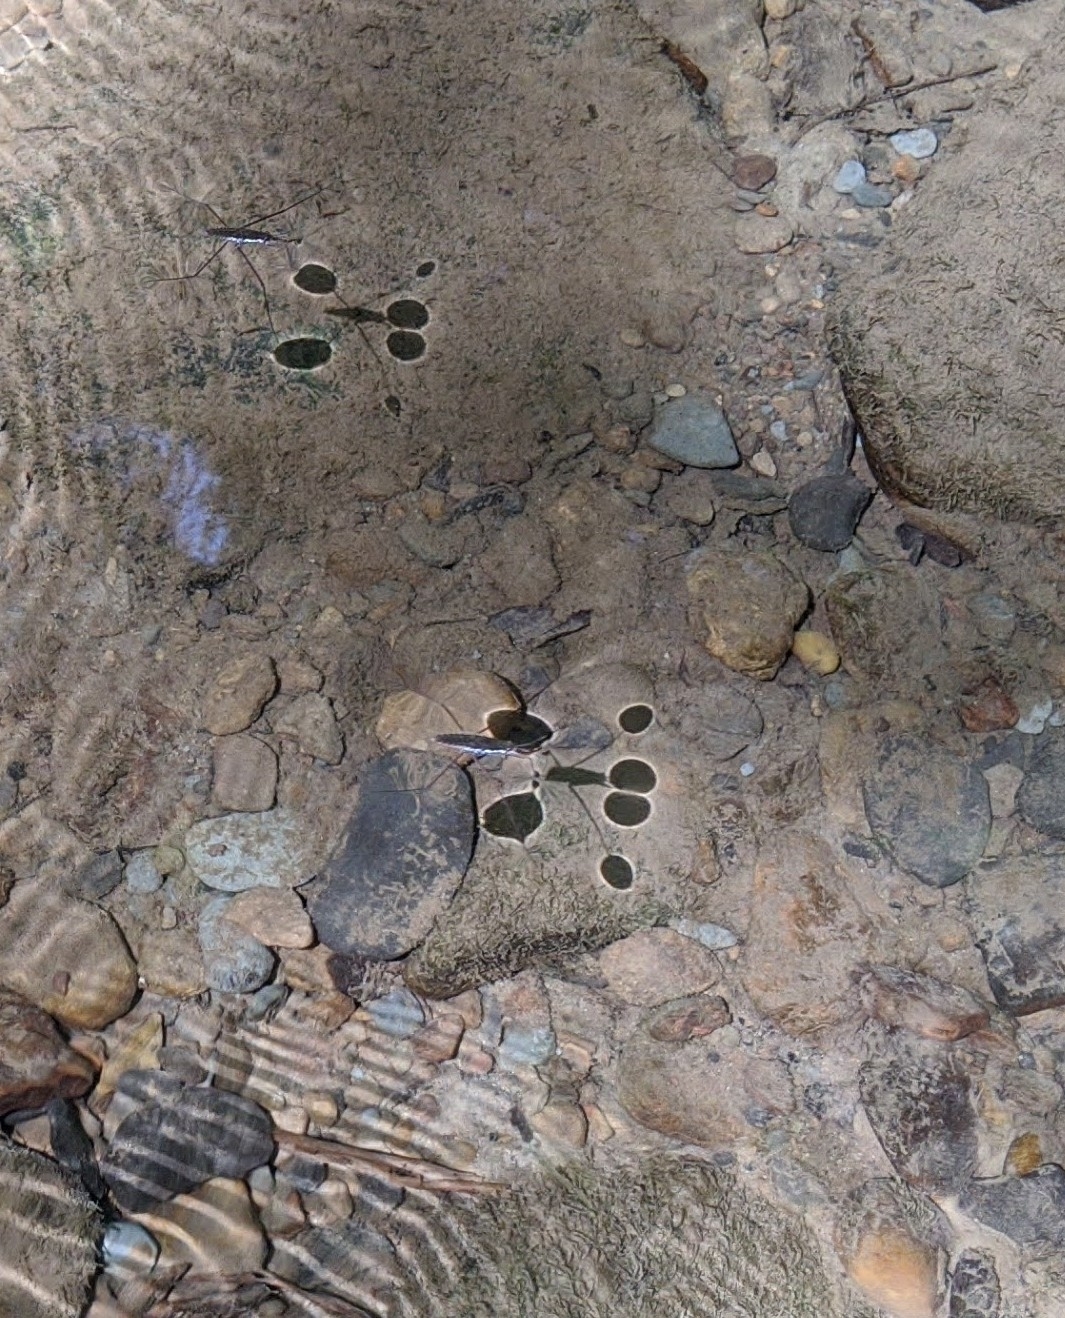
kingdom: Animalia
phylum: Arthropoda
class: Insecta
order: Hemiptera
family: Gerridae
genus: Aquarius
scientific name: Aquarius remigis
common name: Common water strider
